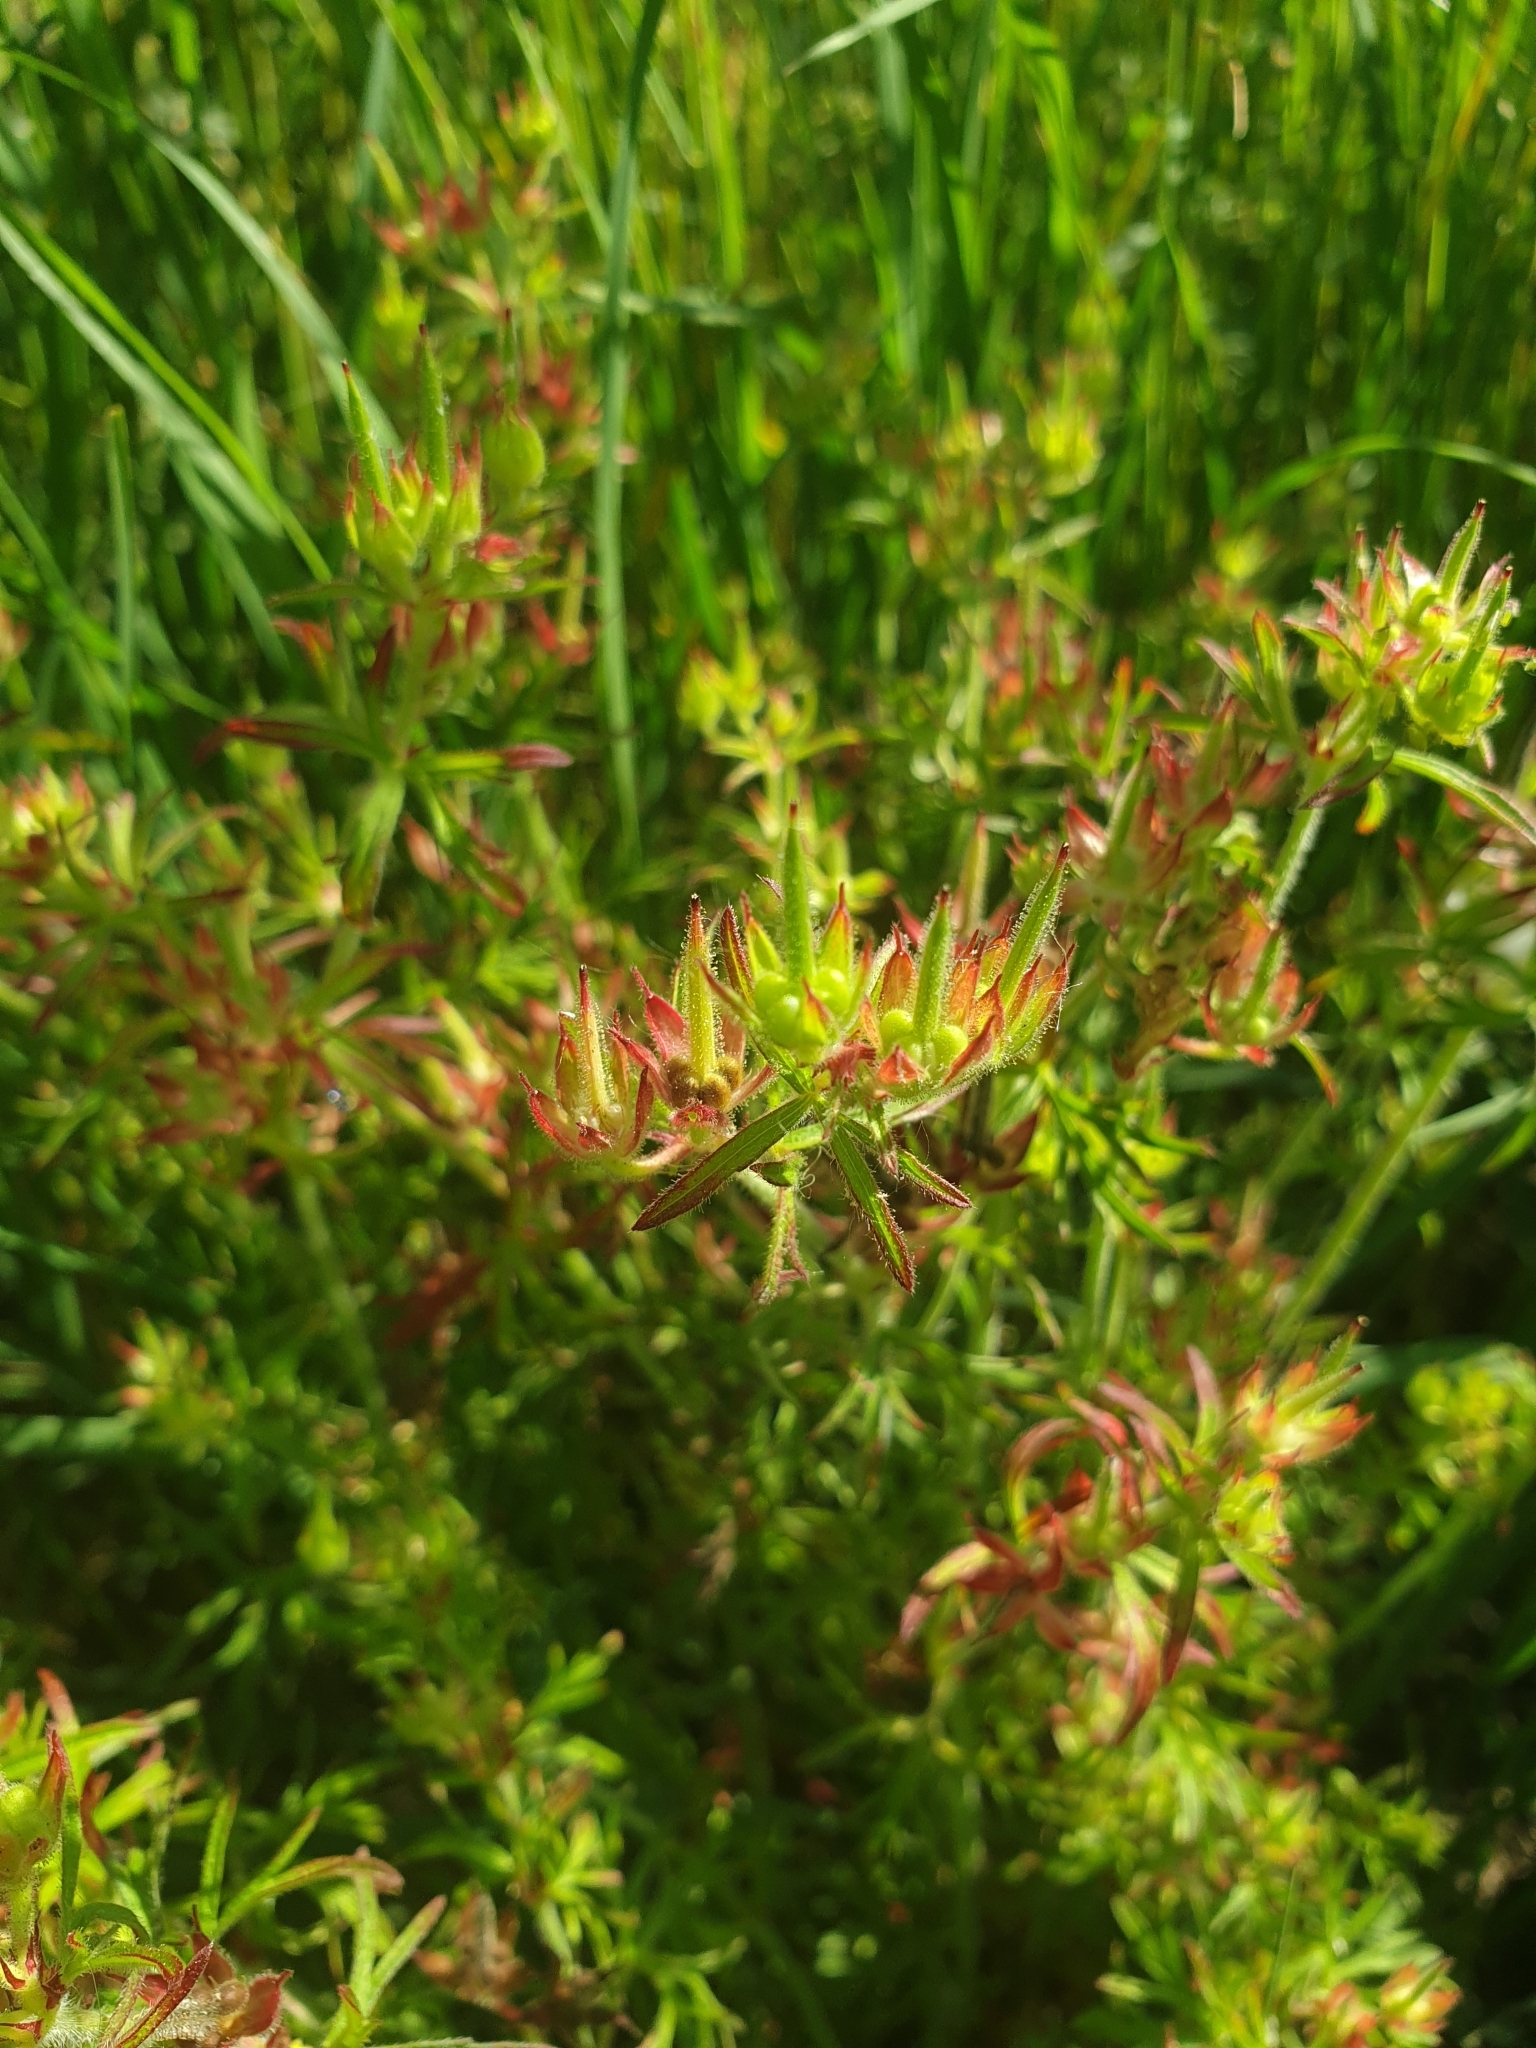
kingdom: Plantae
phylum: Tracheophyta
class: Magnoliopsida
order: Geraniales
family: Geraniaceae
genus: Geranium
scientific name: Geranium dissectum
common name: Cut-leaved crane's-bill
